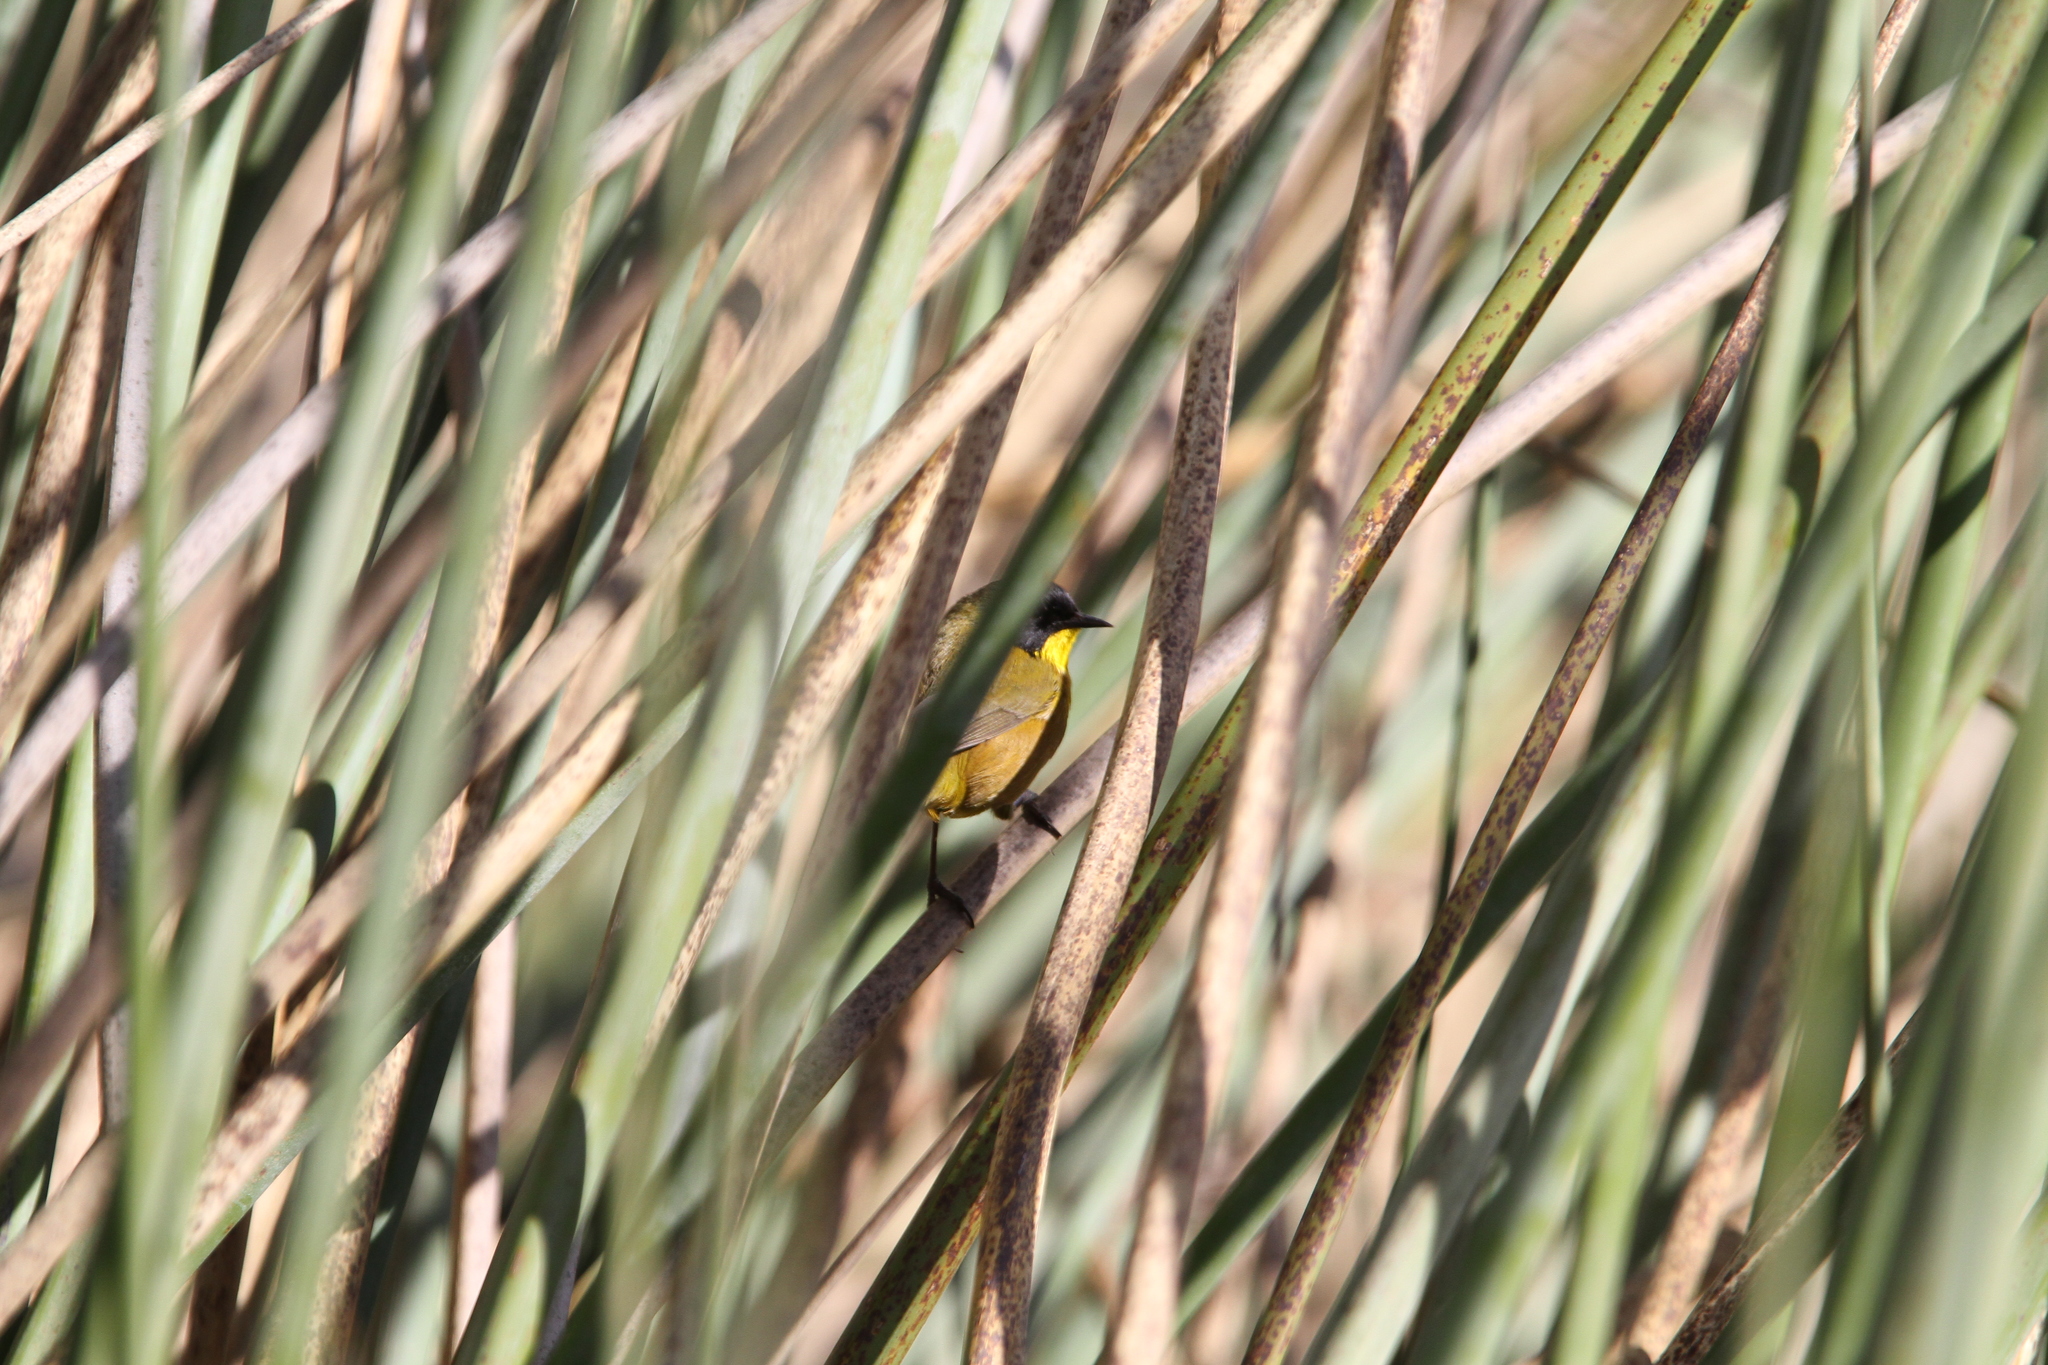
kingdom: Animalia
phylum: Chordata
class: Aves
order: Passeriformes
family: Parulidae
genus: Geothlypis
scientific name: Geothlypis speciosa
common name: Black-polled yellowthroat
